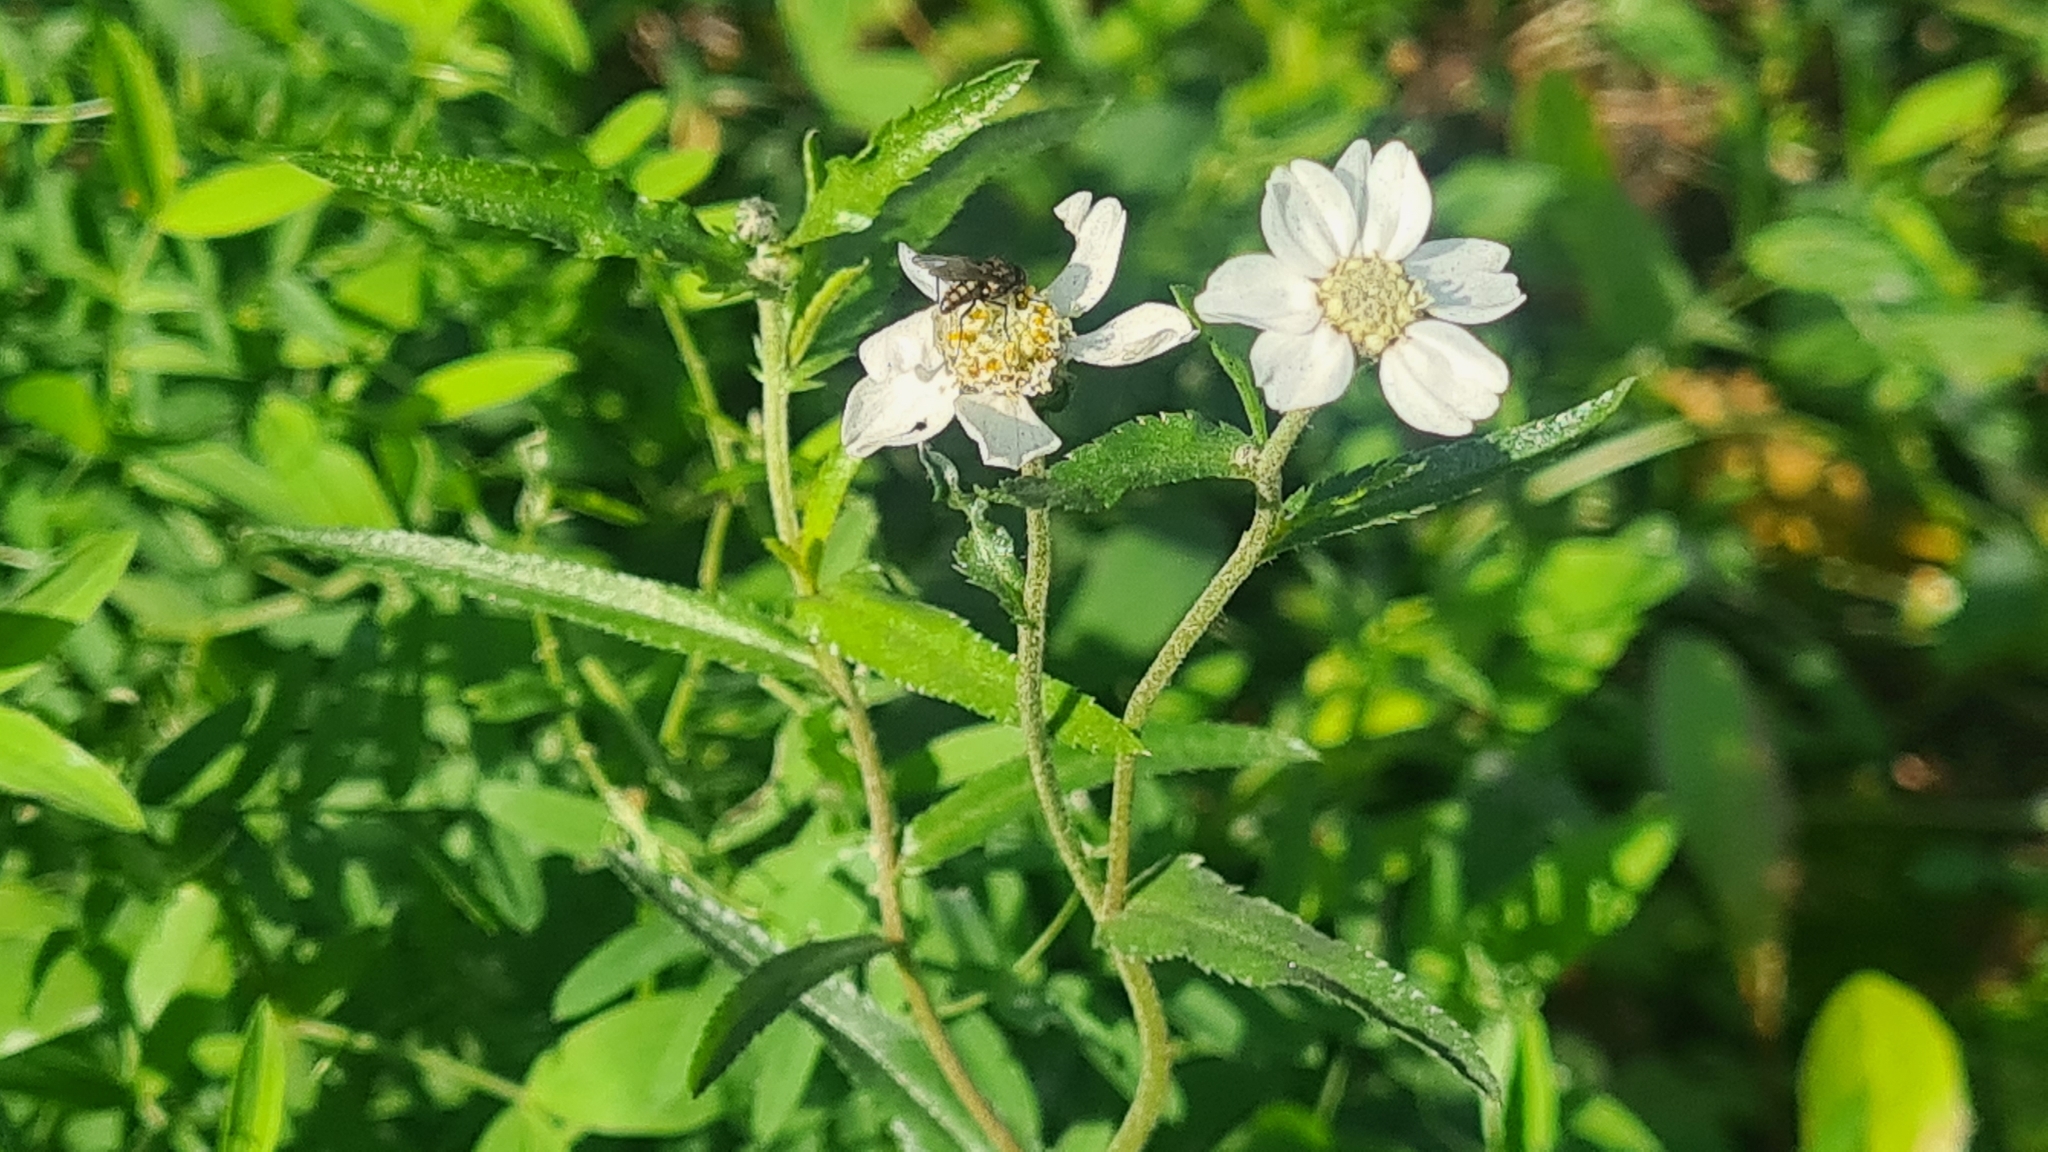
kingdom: Plantae
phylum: Tracheophyta
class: Magnoliopsida
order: Asterales
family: Asteraceae
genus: Achillea
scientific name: Achillea ptarmica
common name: Sneezeweed
